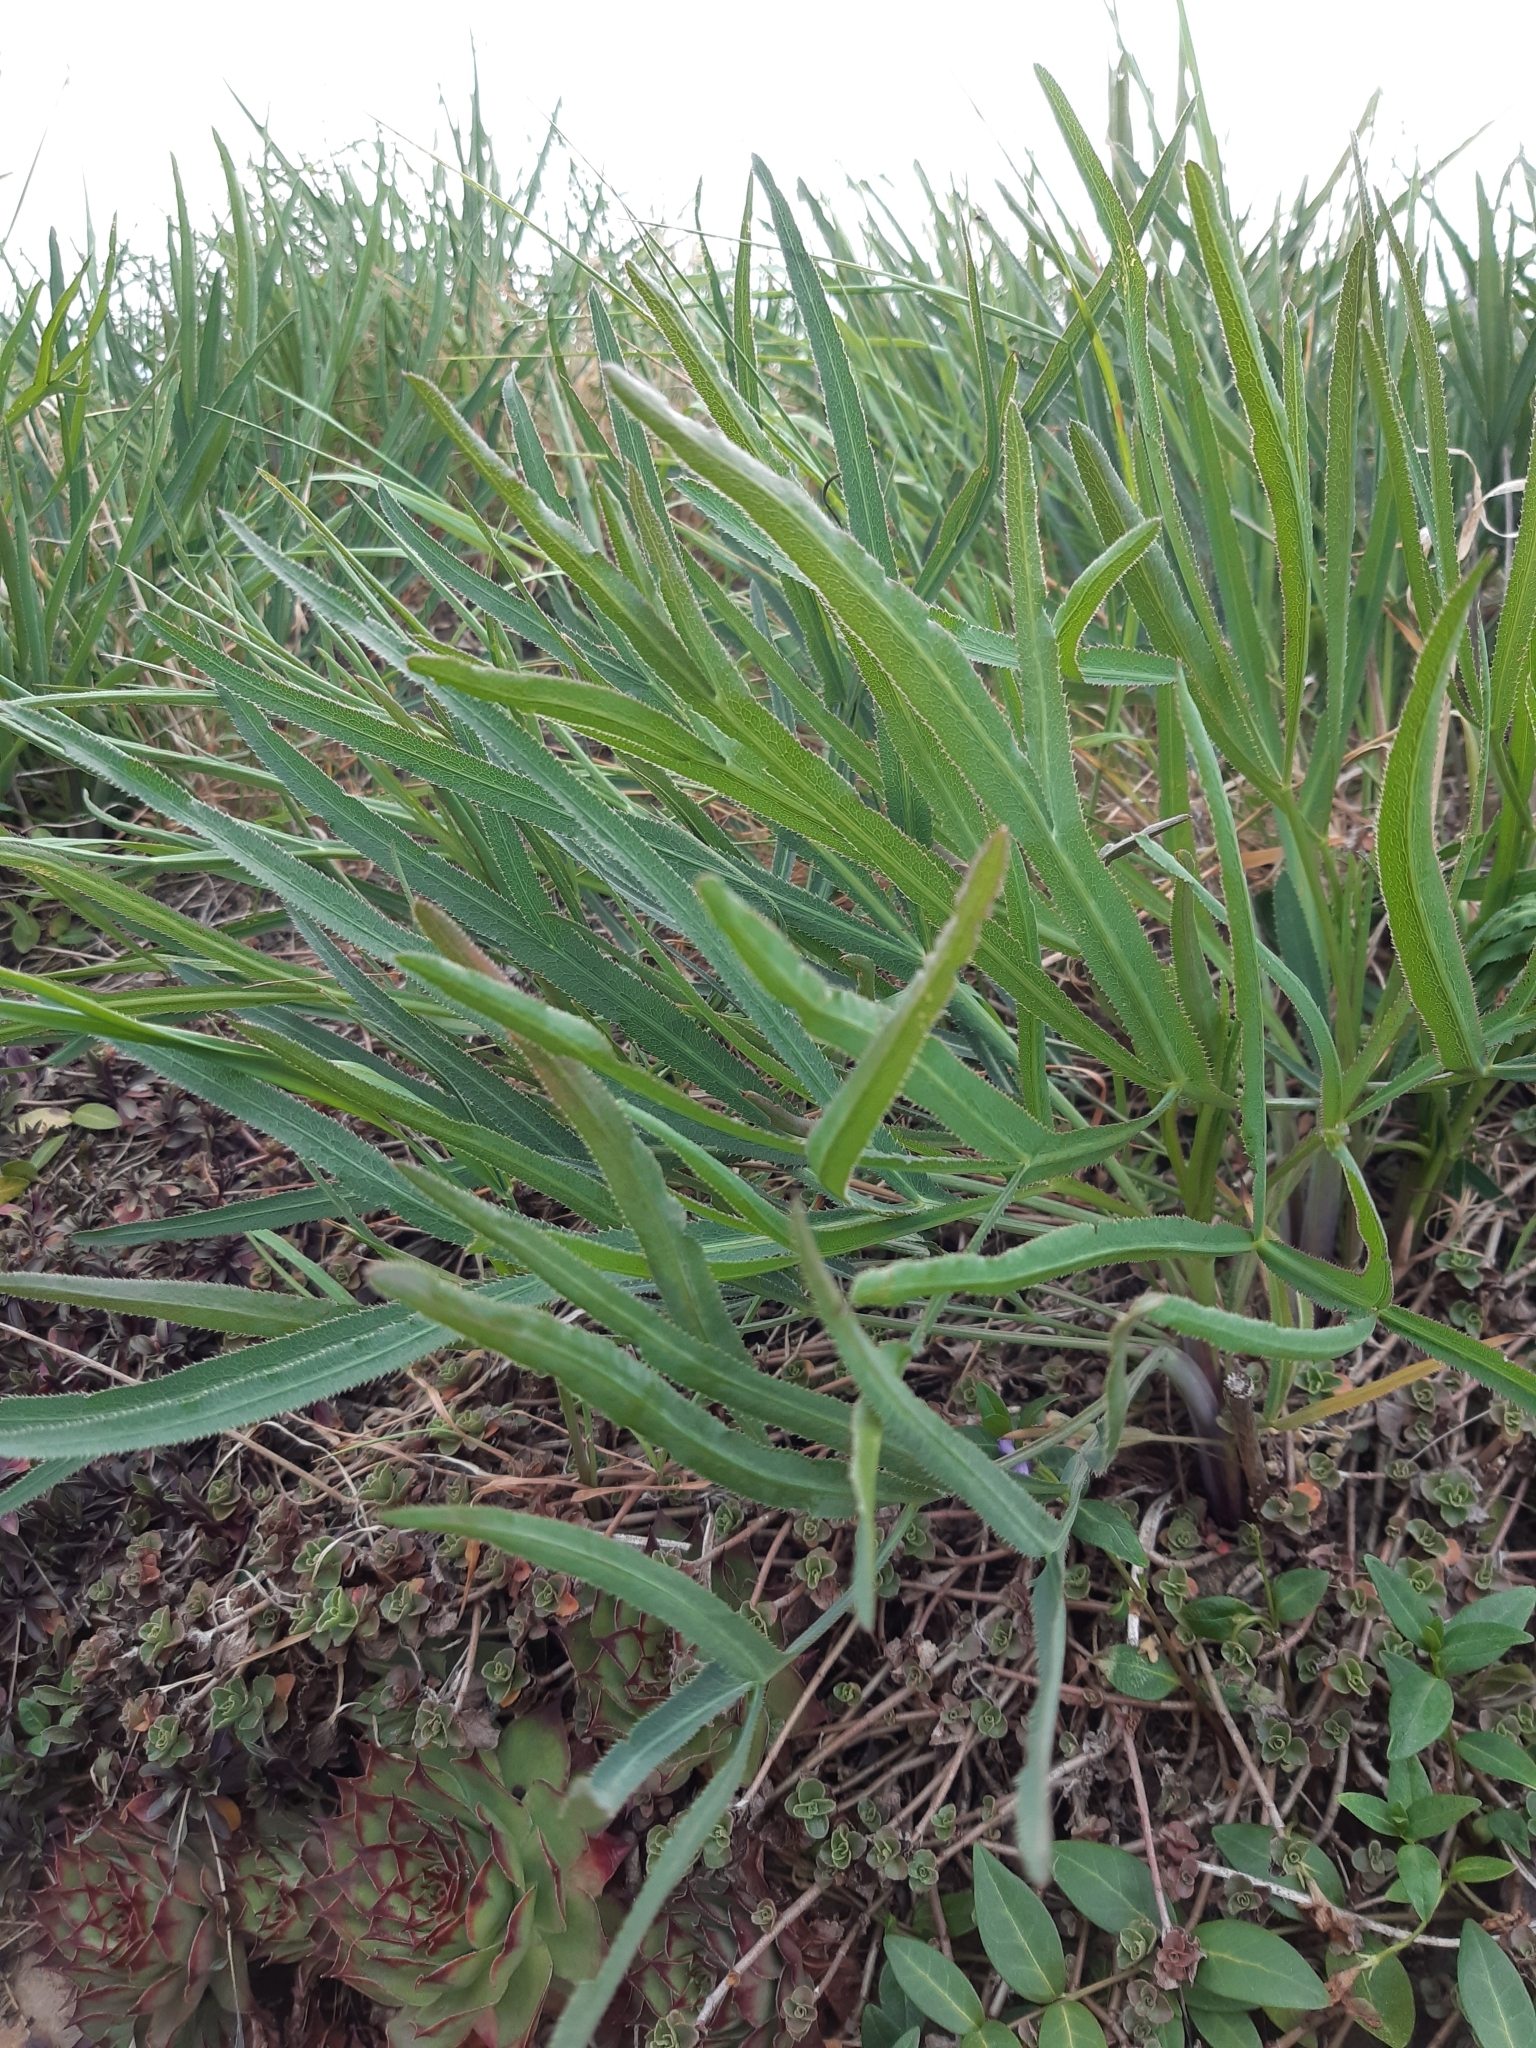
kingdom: Plantae
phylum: Tracheophyta
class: Magnoliopsida
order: Apiales
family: Apiaceae
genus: Falcaria
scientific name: Falcaria vulgaris
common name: Longleaf
